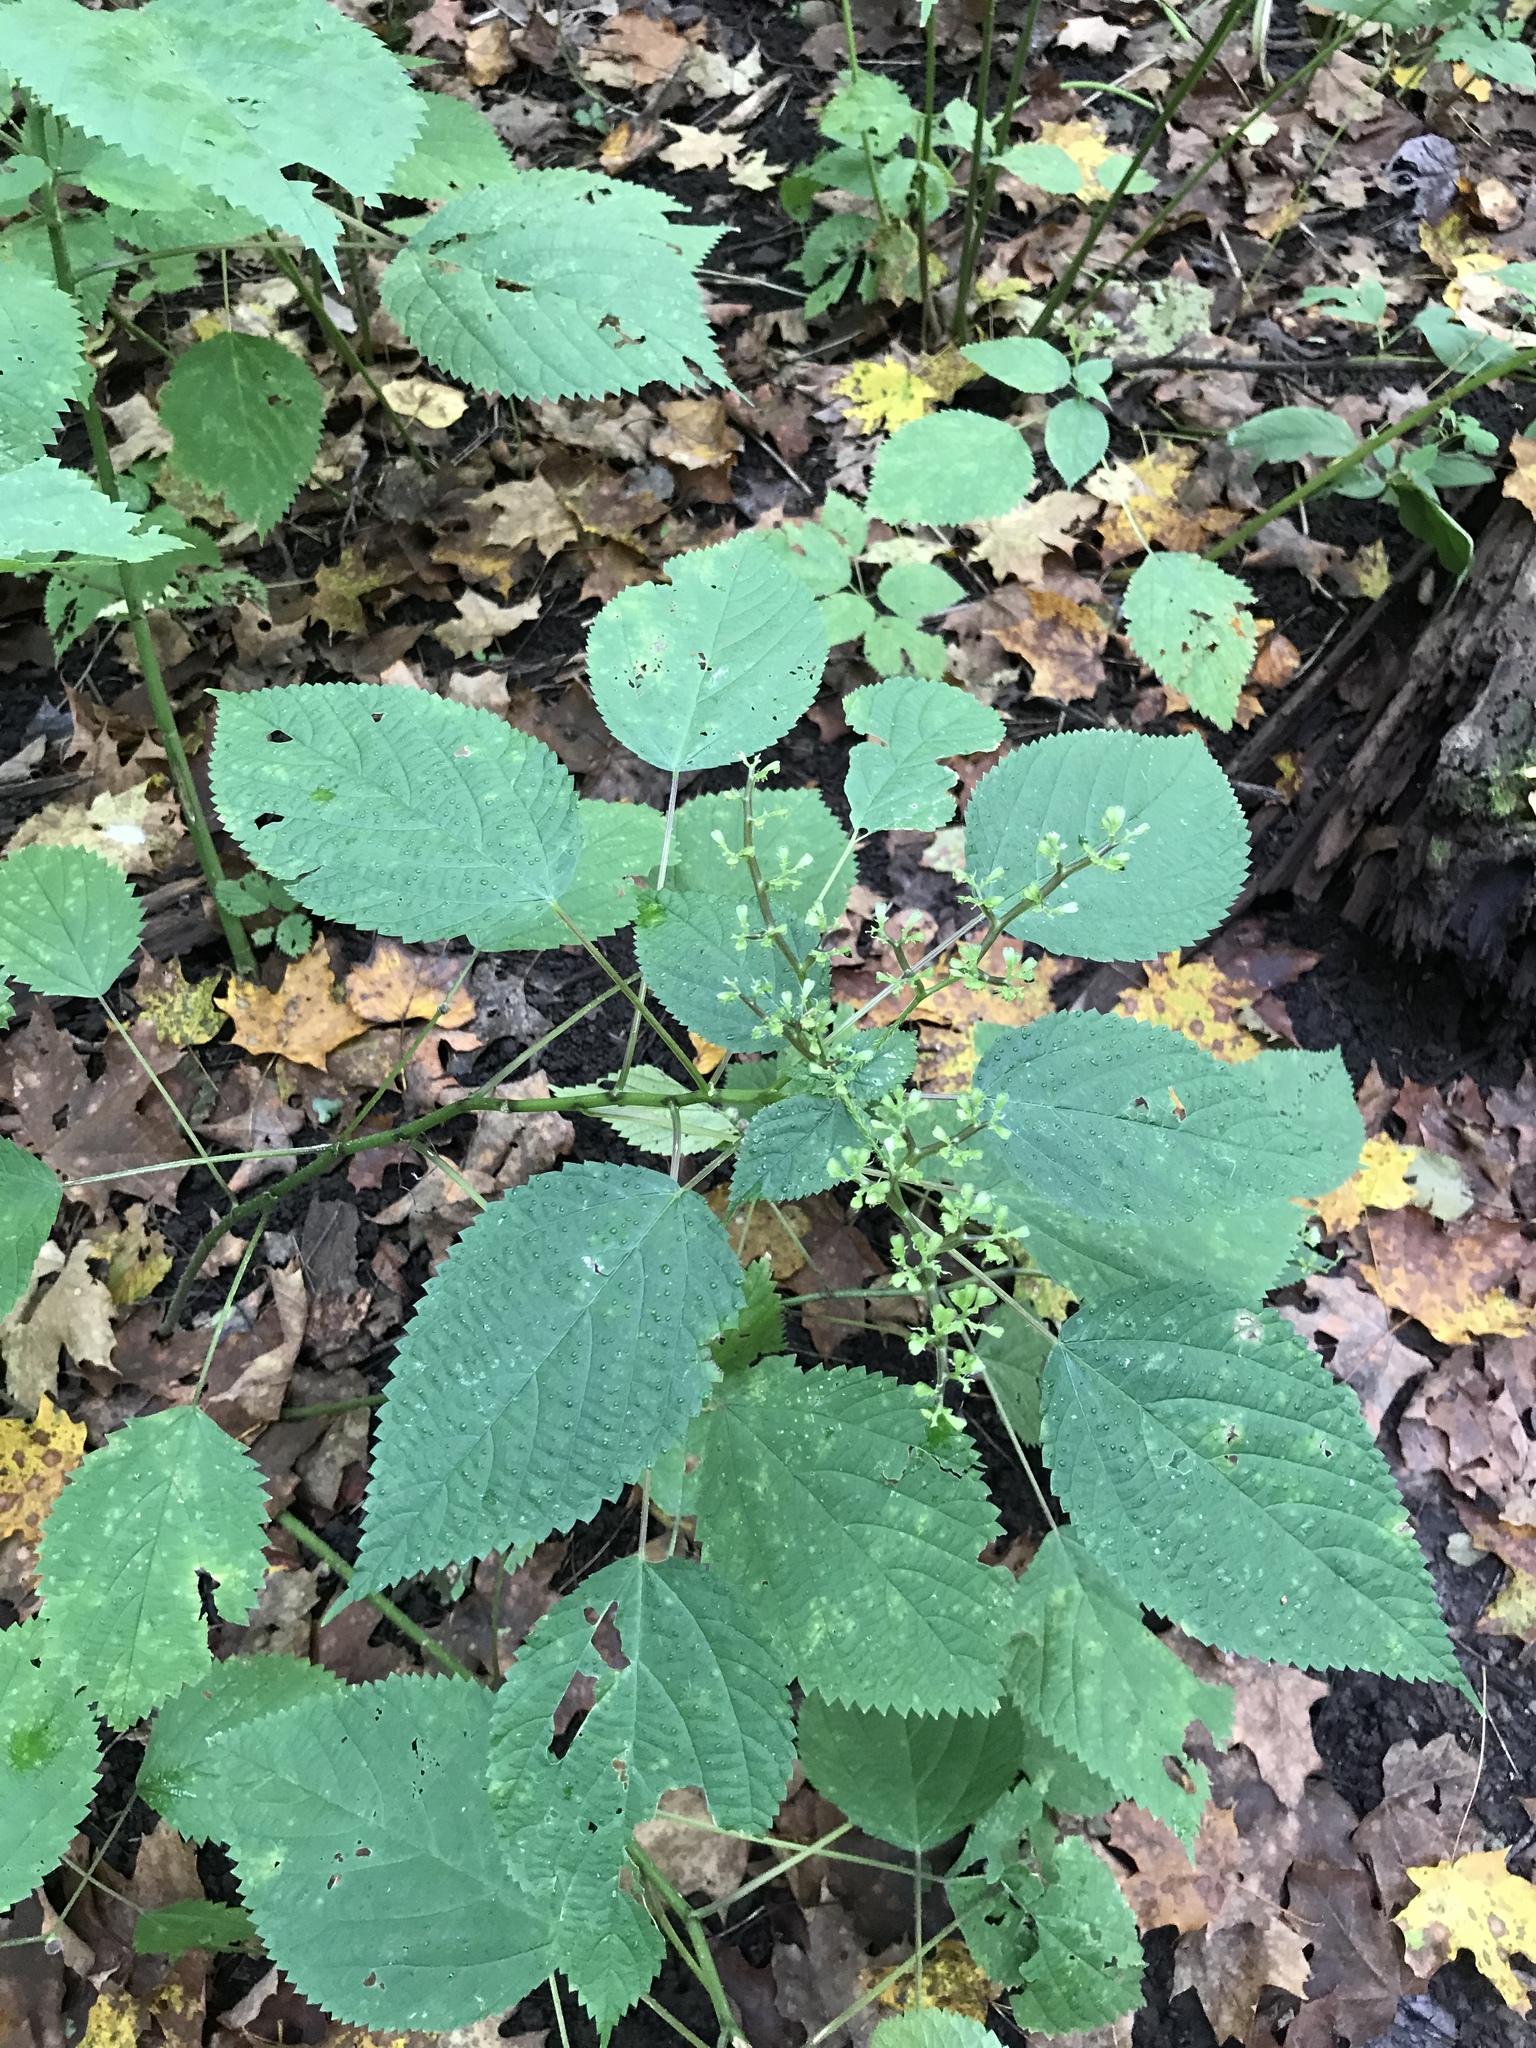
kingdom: Plantae
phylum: Tracheophyta
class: Magnoliopsida
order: Rosales
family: Urticaceae
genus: Laportea
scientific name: Laportea canadensis
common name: Canada nettle
